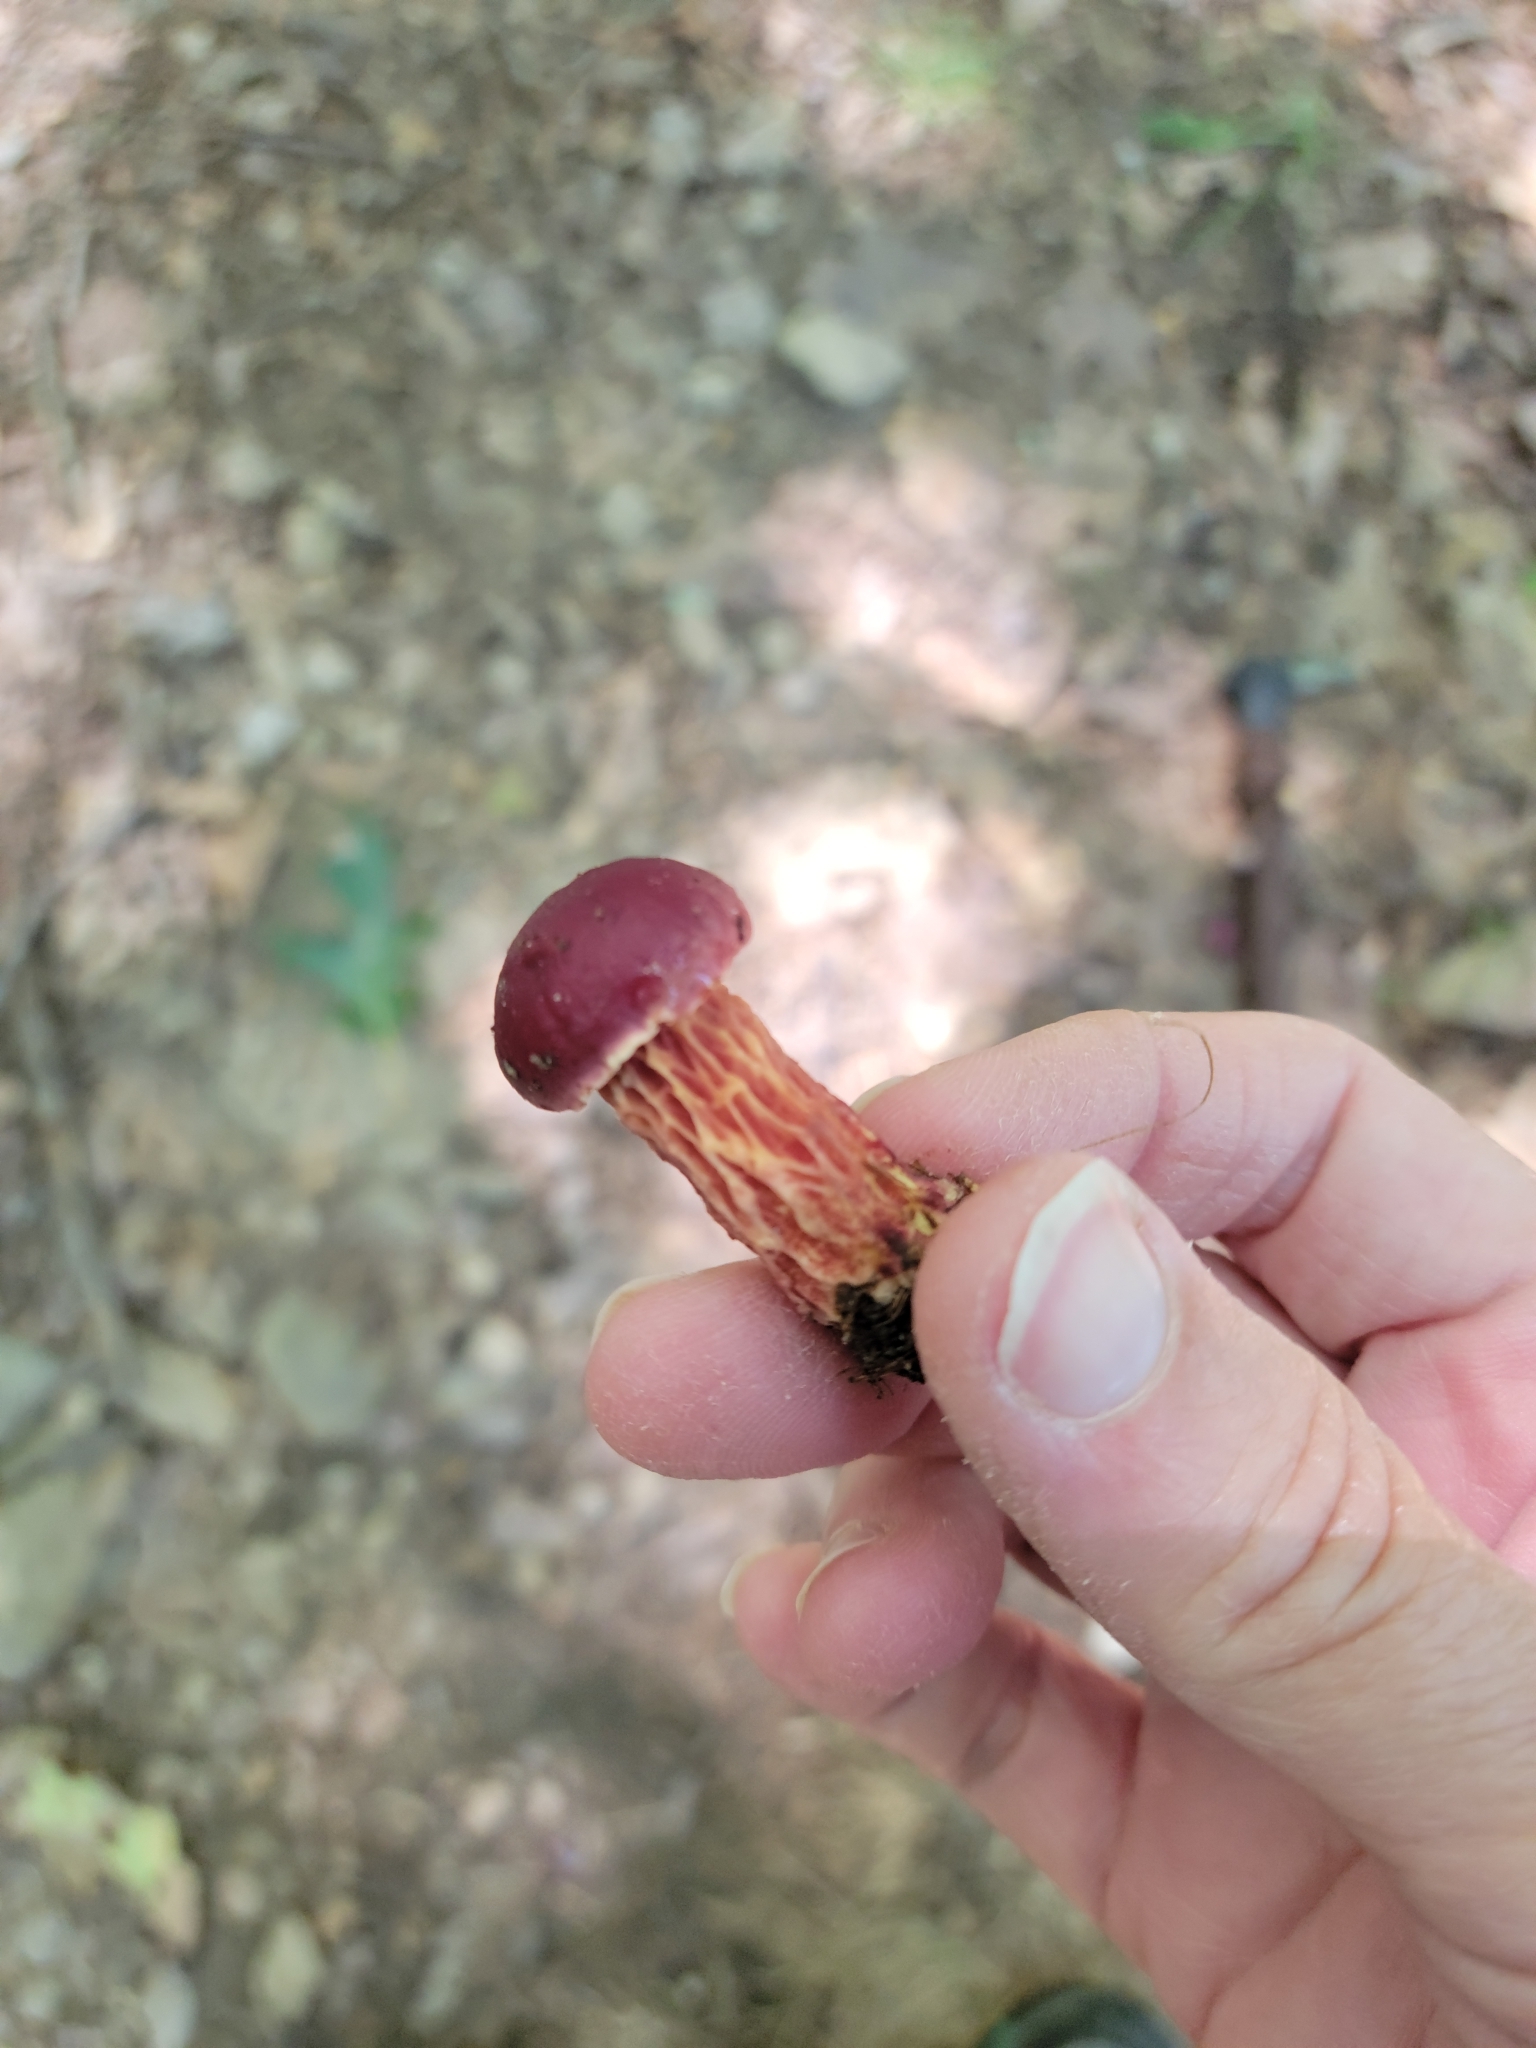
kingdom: Fungi
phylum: Basidiomycota
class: Agaricomycetes
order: Boletales
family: Boletaceae
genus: Butyriboletus
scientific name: Butyriboletus frostii
